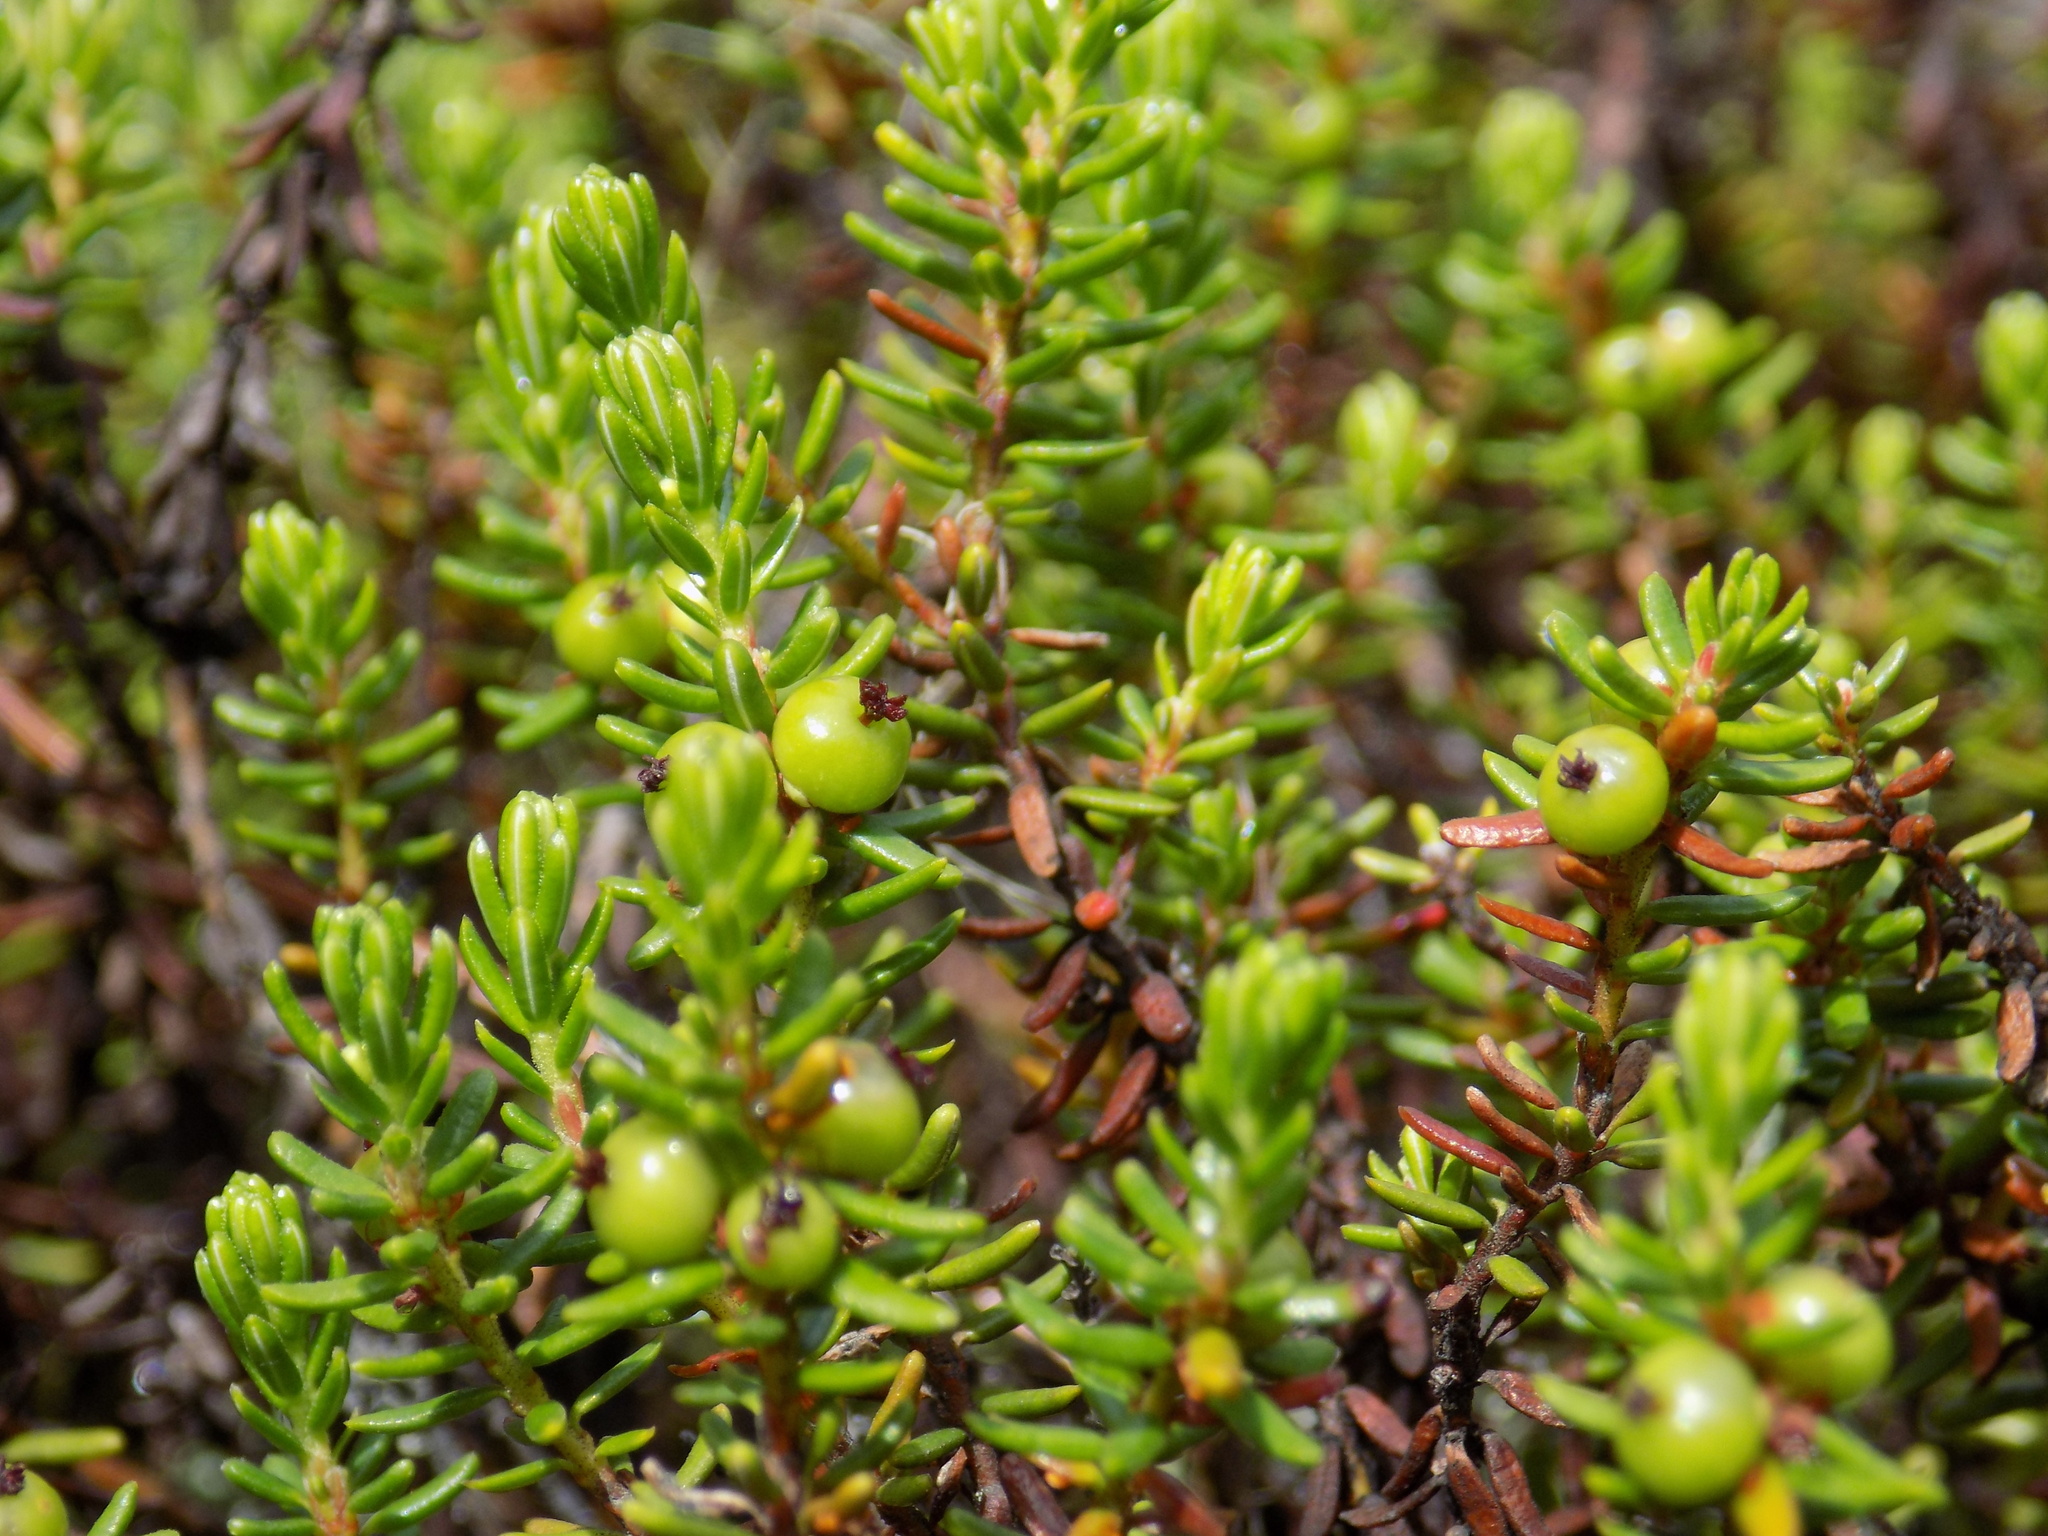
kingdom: Plantae
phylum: Tracheophyta
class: Magnoliopsida
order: Ericales
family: Ericaceae
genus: Empetrum
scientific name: Empetrum nigrum
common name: Black crowberry
